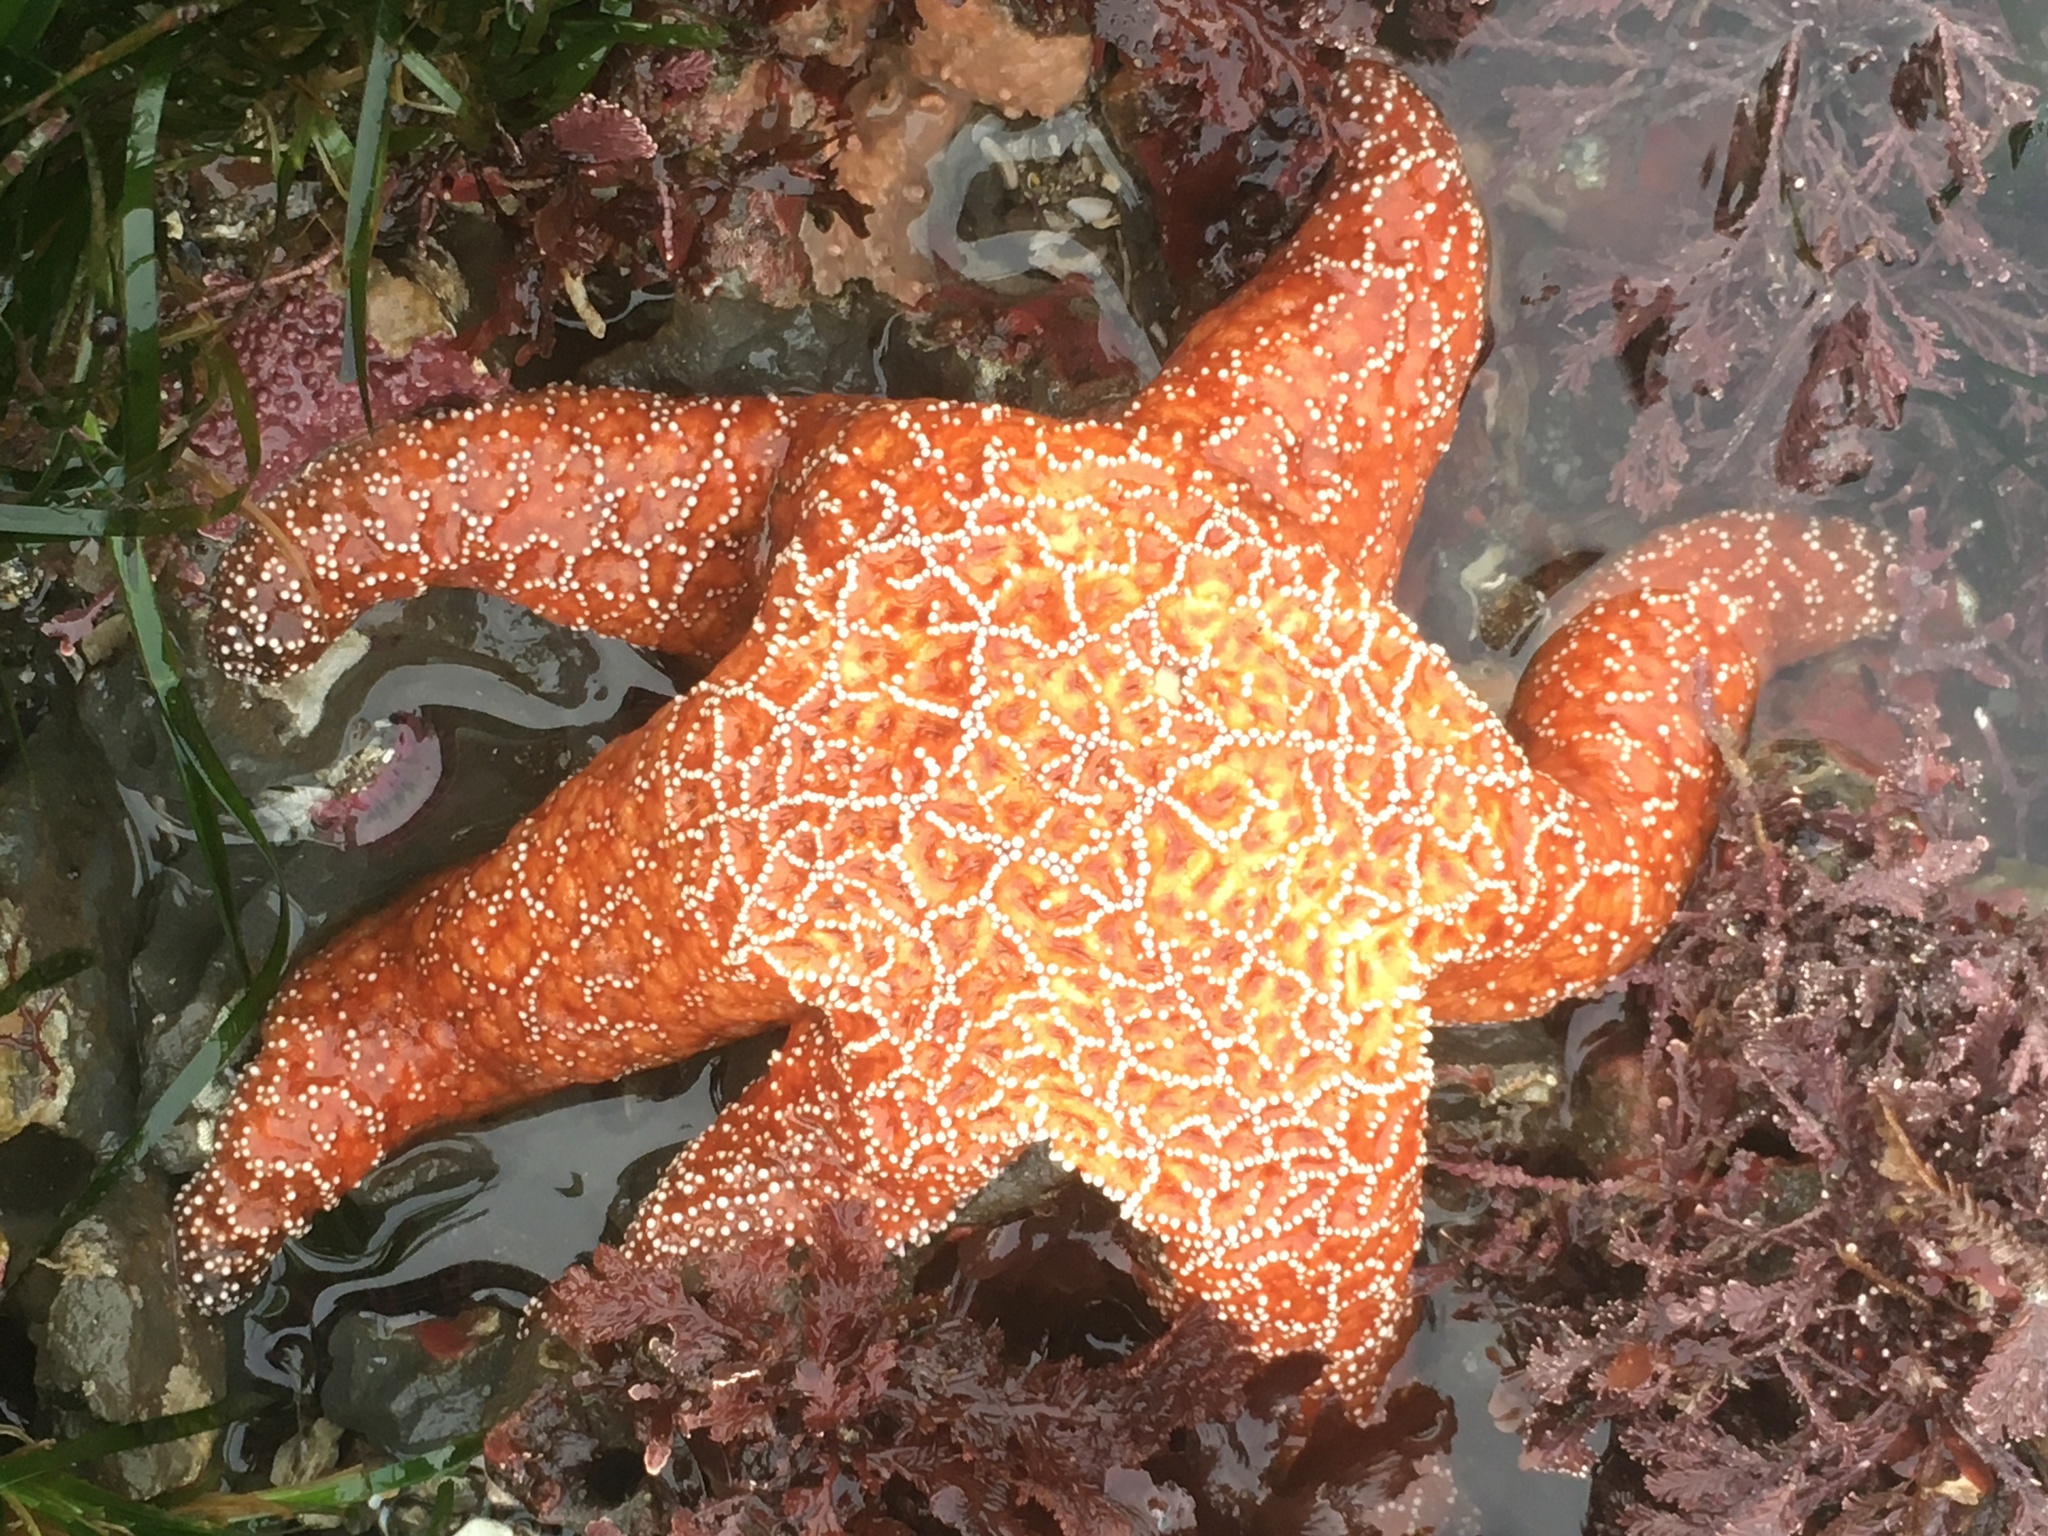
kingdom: Animalia
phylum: Echinodermata
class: Asteroidea
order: Forcipulatida
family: Asteriidae
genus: Pisaster
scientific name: Pisaster ochraceus
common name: Ochre stars
